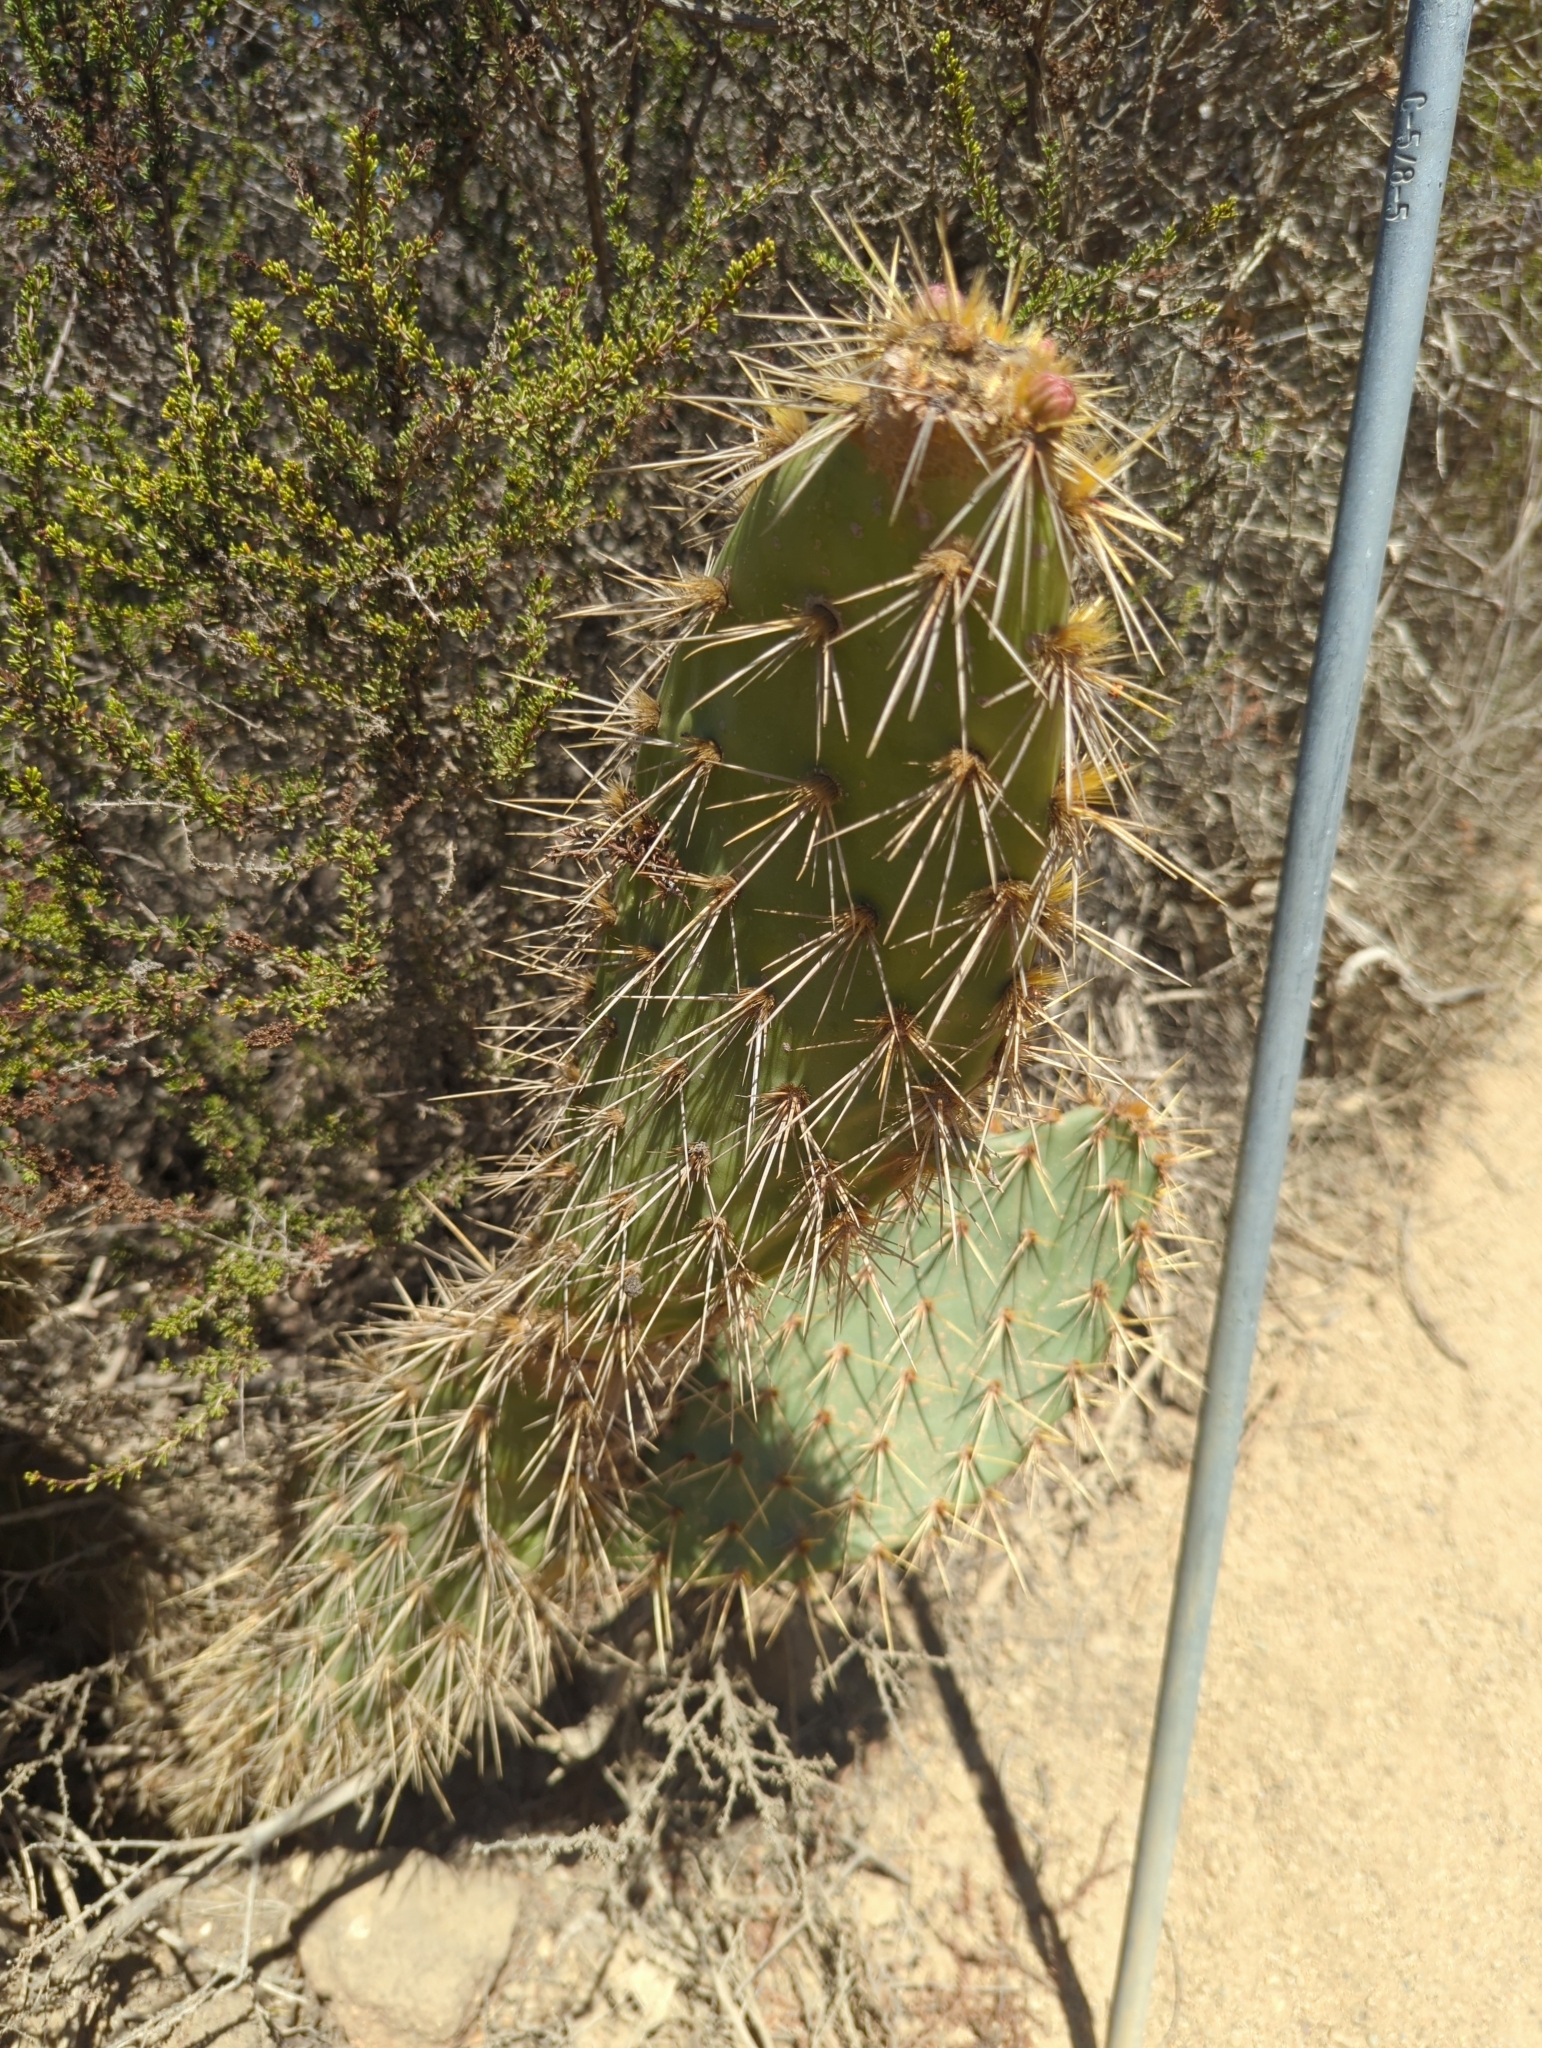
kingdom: Plantae
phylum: Tracheophyta
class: Magnoliopsida
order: Caryophyllales
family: Cactaceae
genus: Opuntia
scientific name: Opuntia littoralis
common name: Coastal prickly-pear
